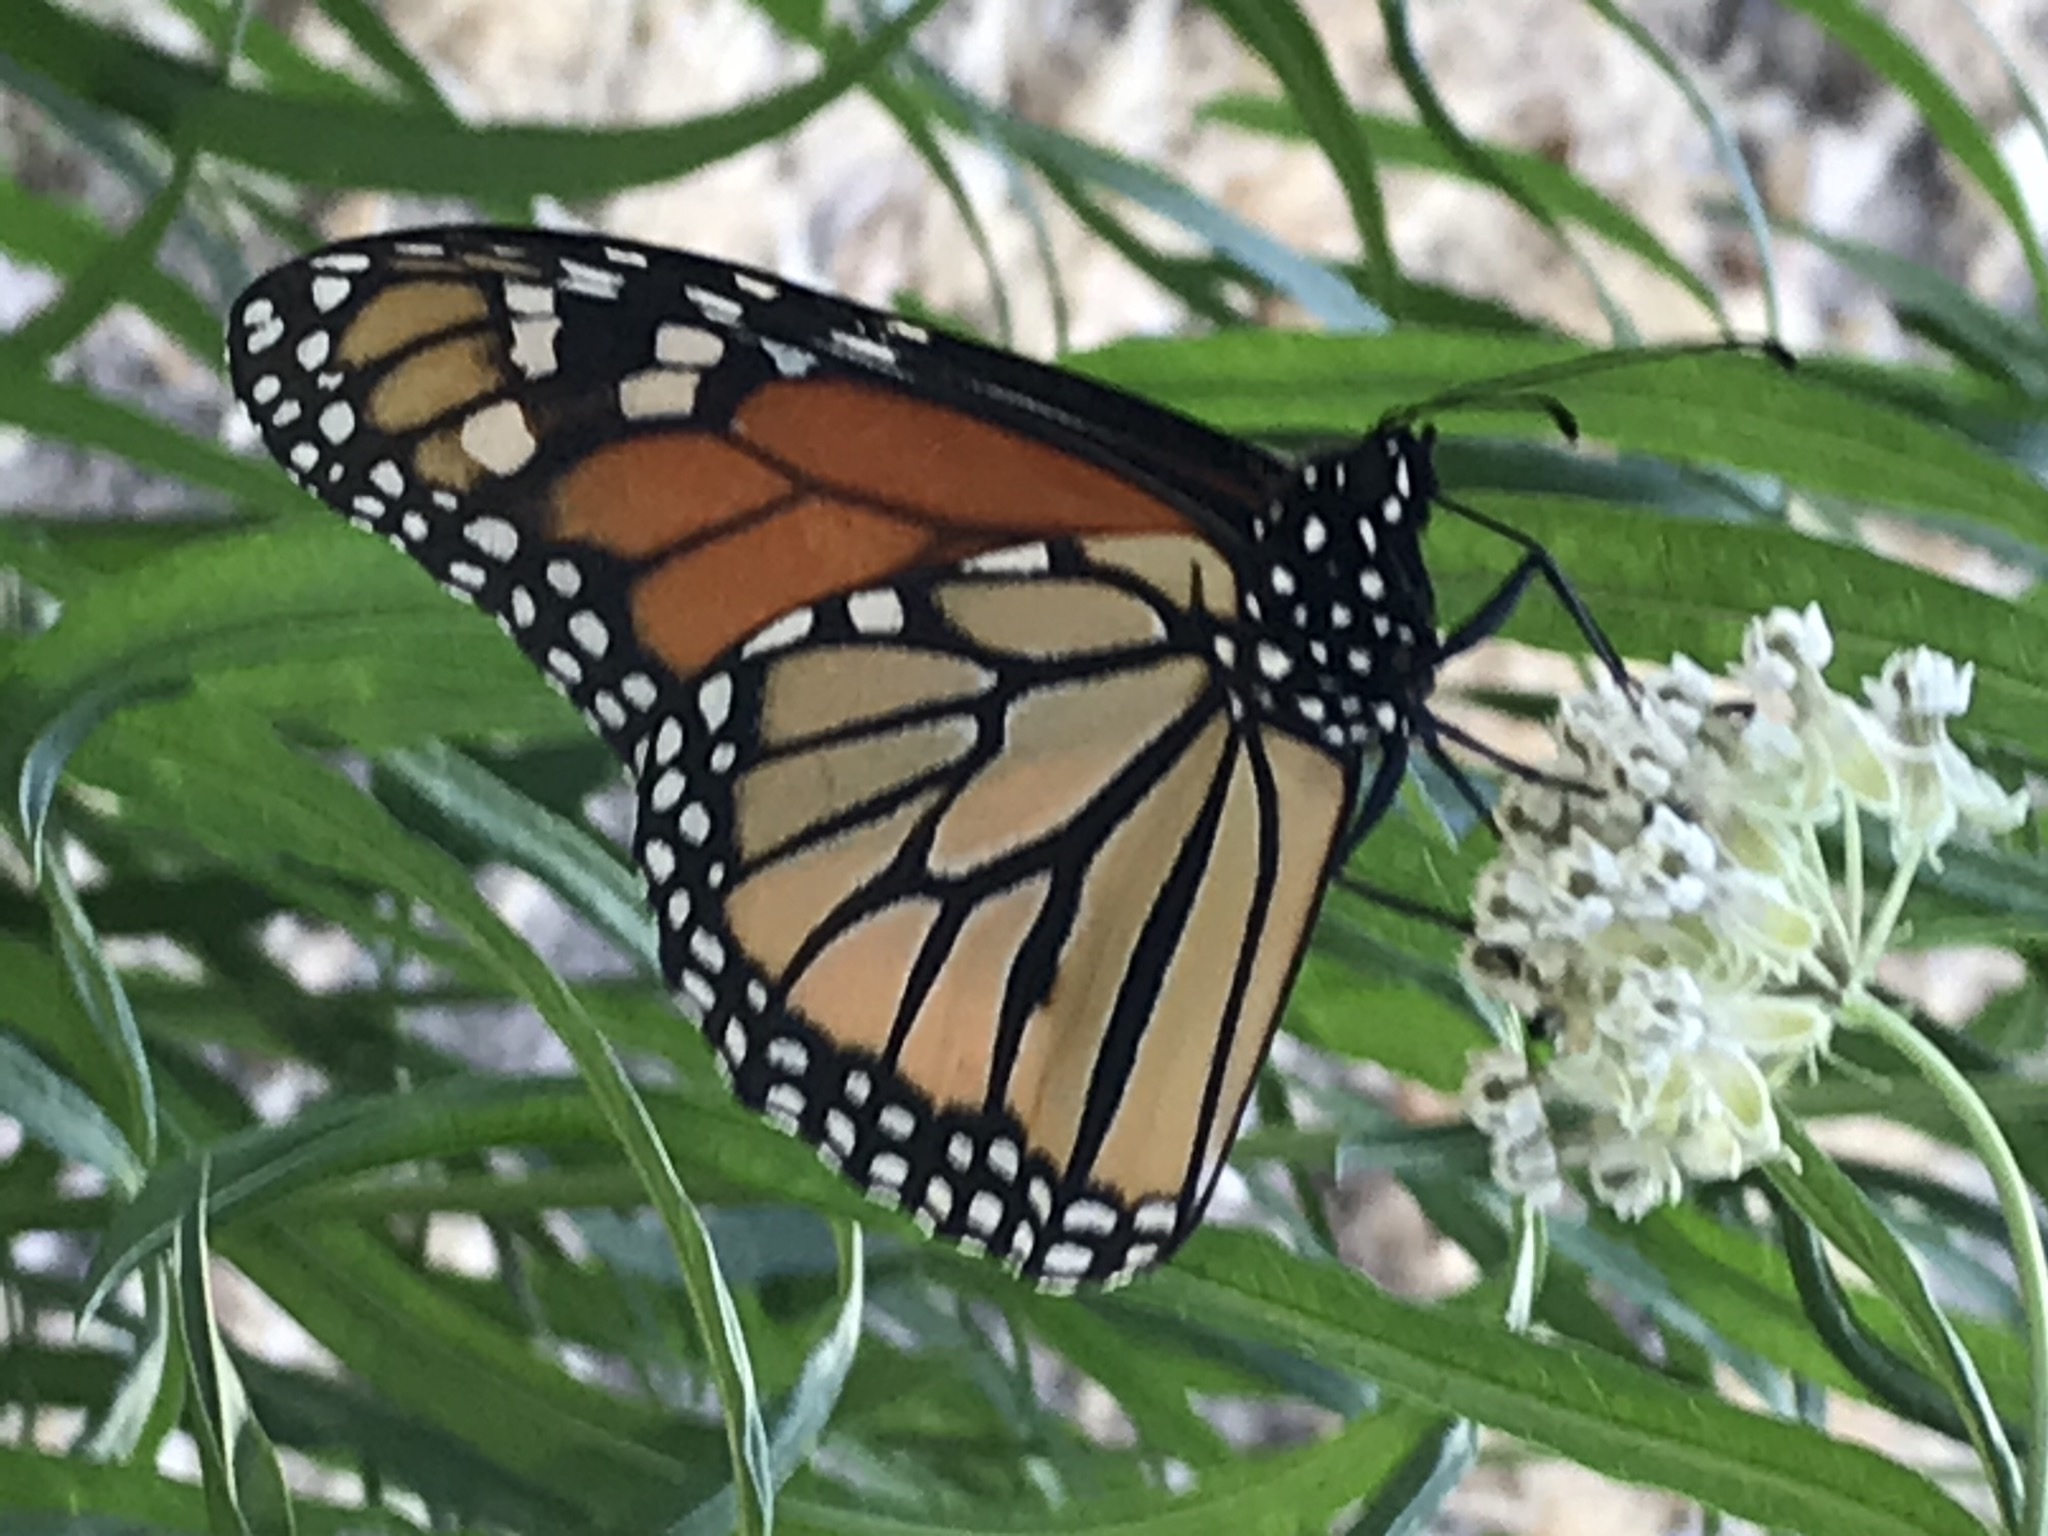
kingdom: Animalia
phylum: Arthropoda
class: Insecta
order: Lepidoptera
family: Nymphalidae
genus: Danaus
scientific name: Danaus plexippus
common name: Monarch
